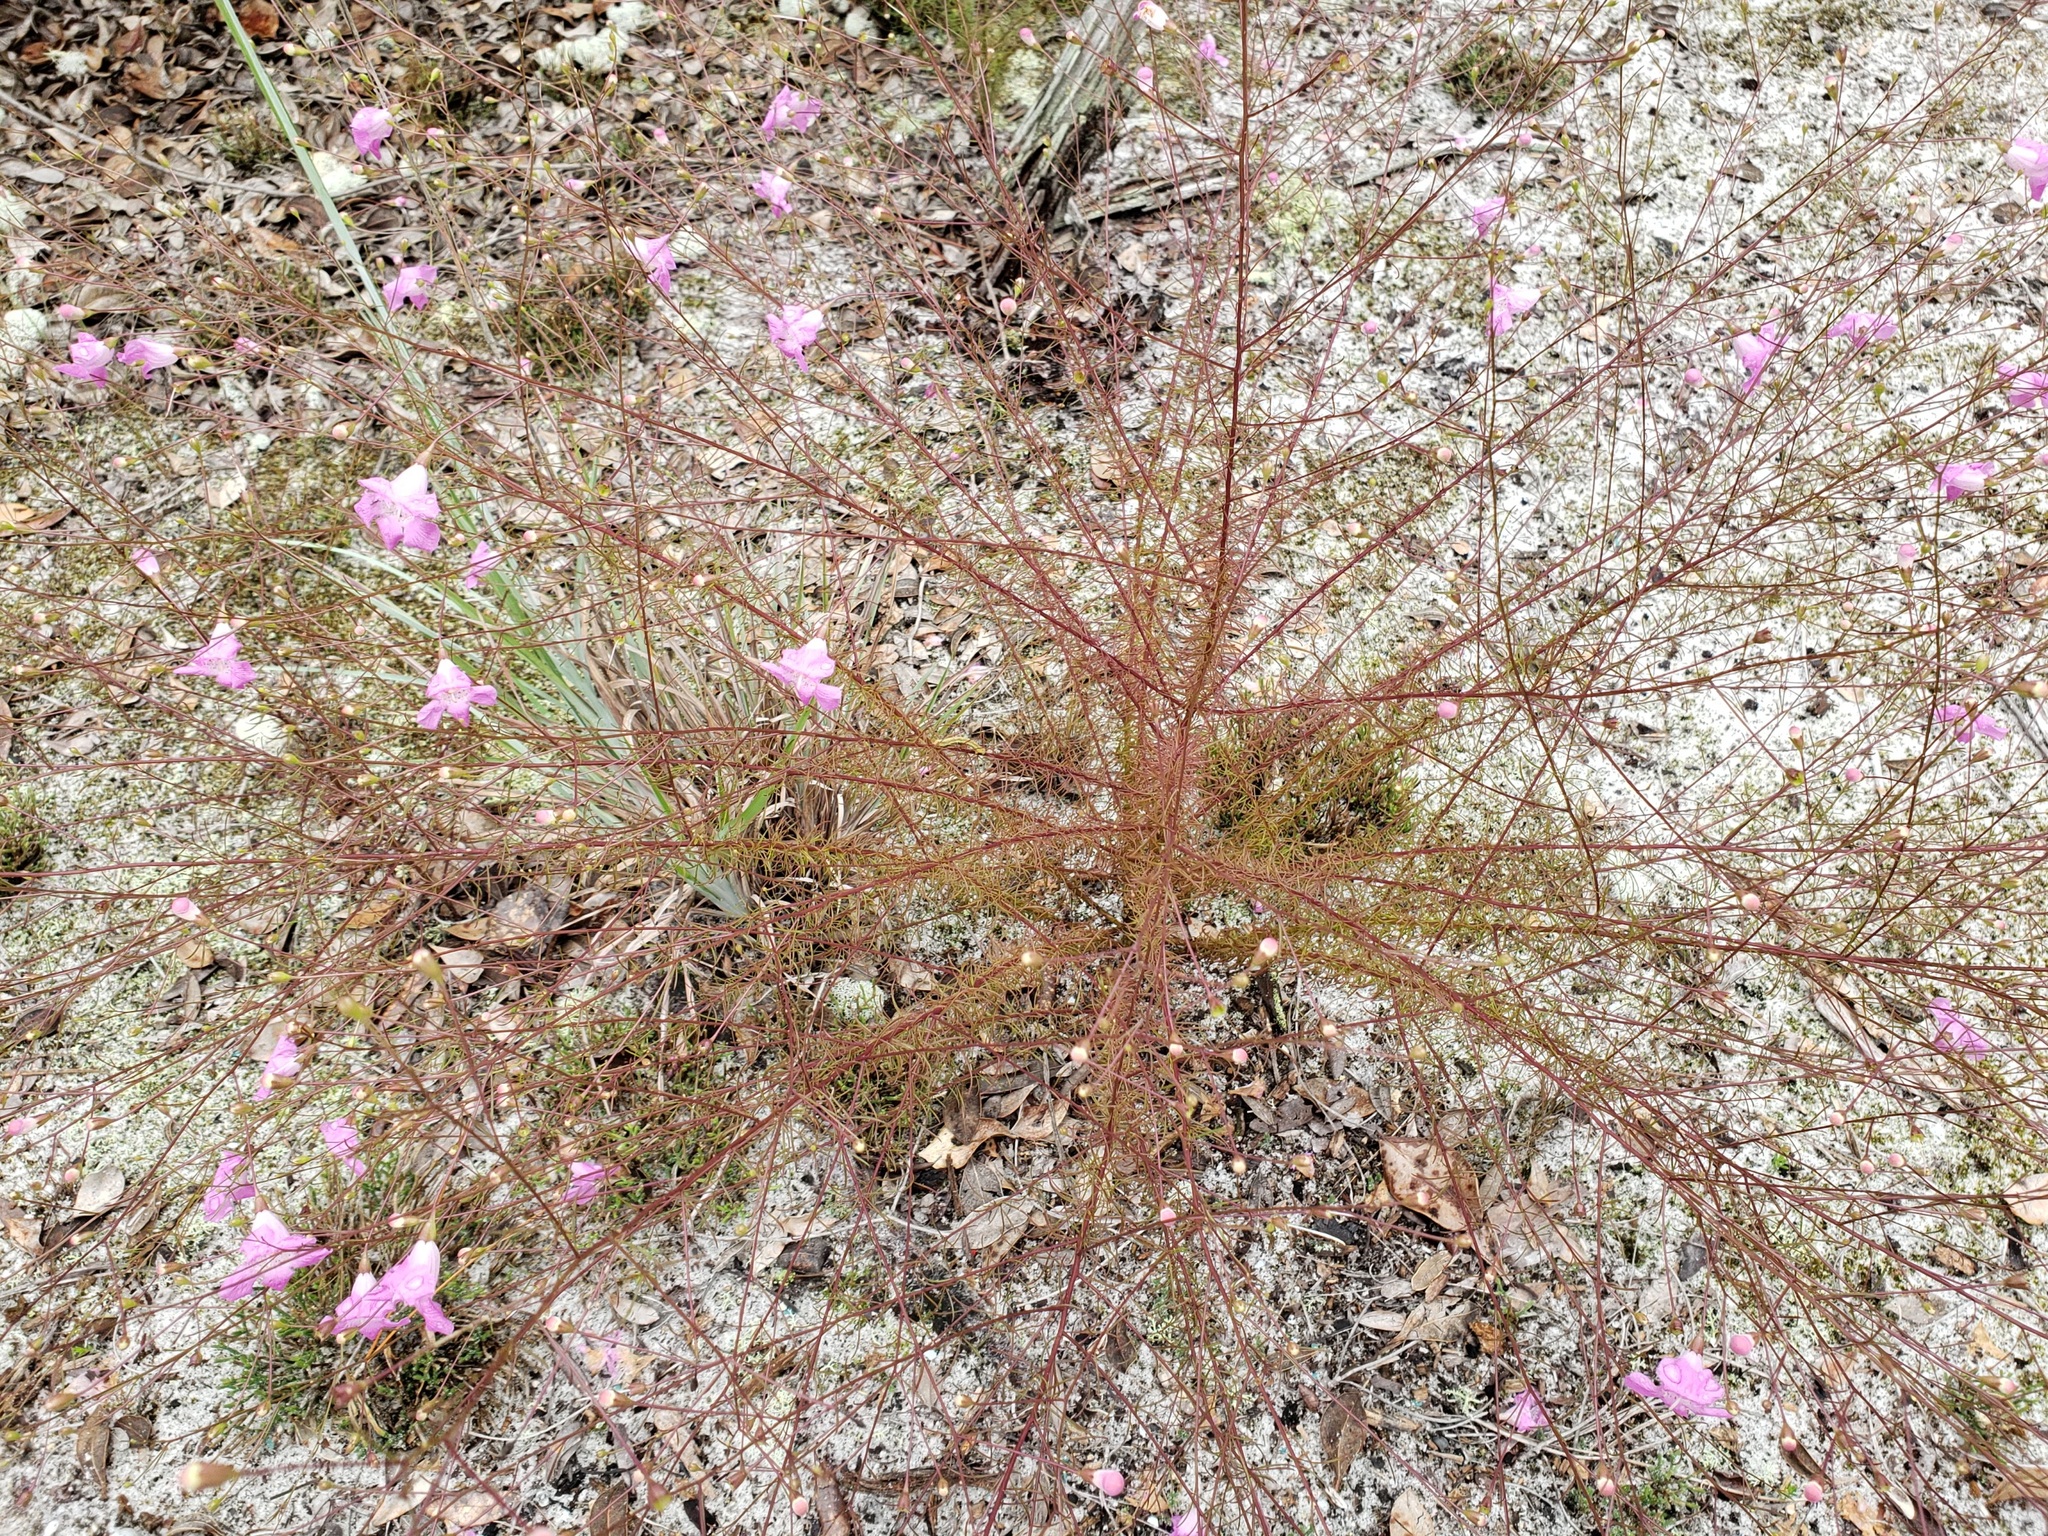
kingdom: Plantae
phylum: Tracheophyta
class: Magnoliopsida
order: Lamiales
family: Orobanchaceae
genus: Agalinis
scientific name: Agalinis filifolia
